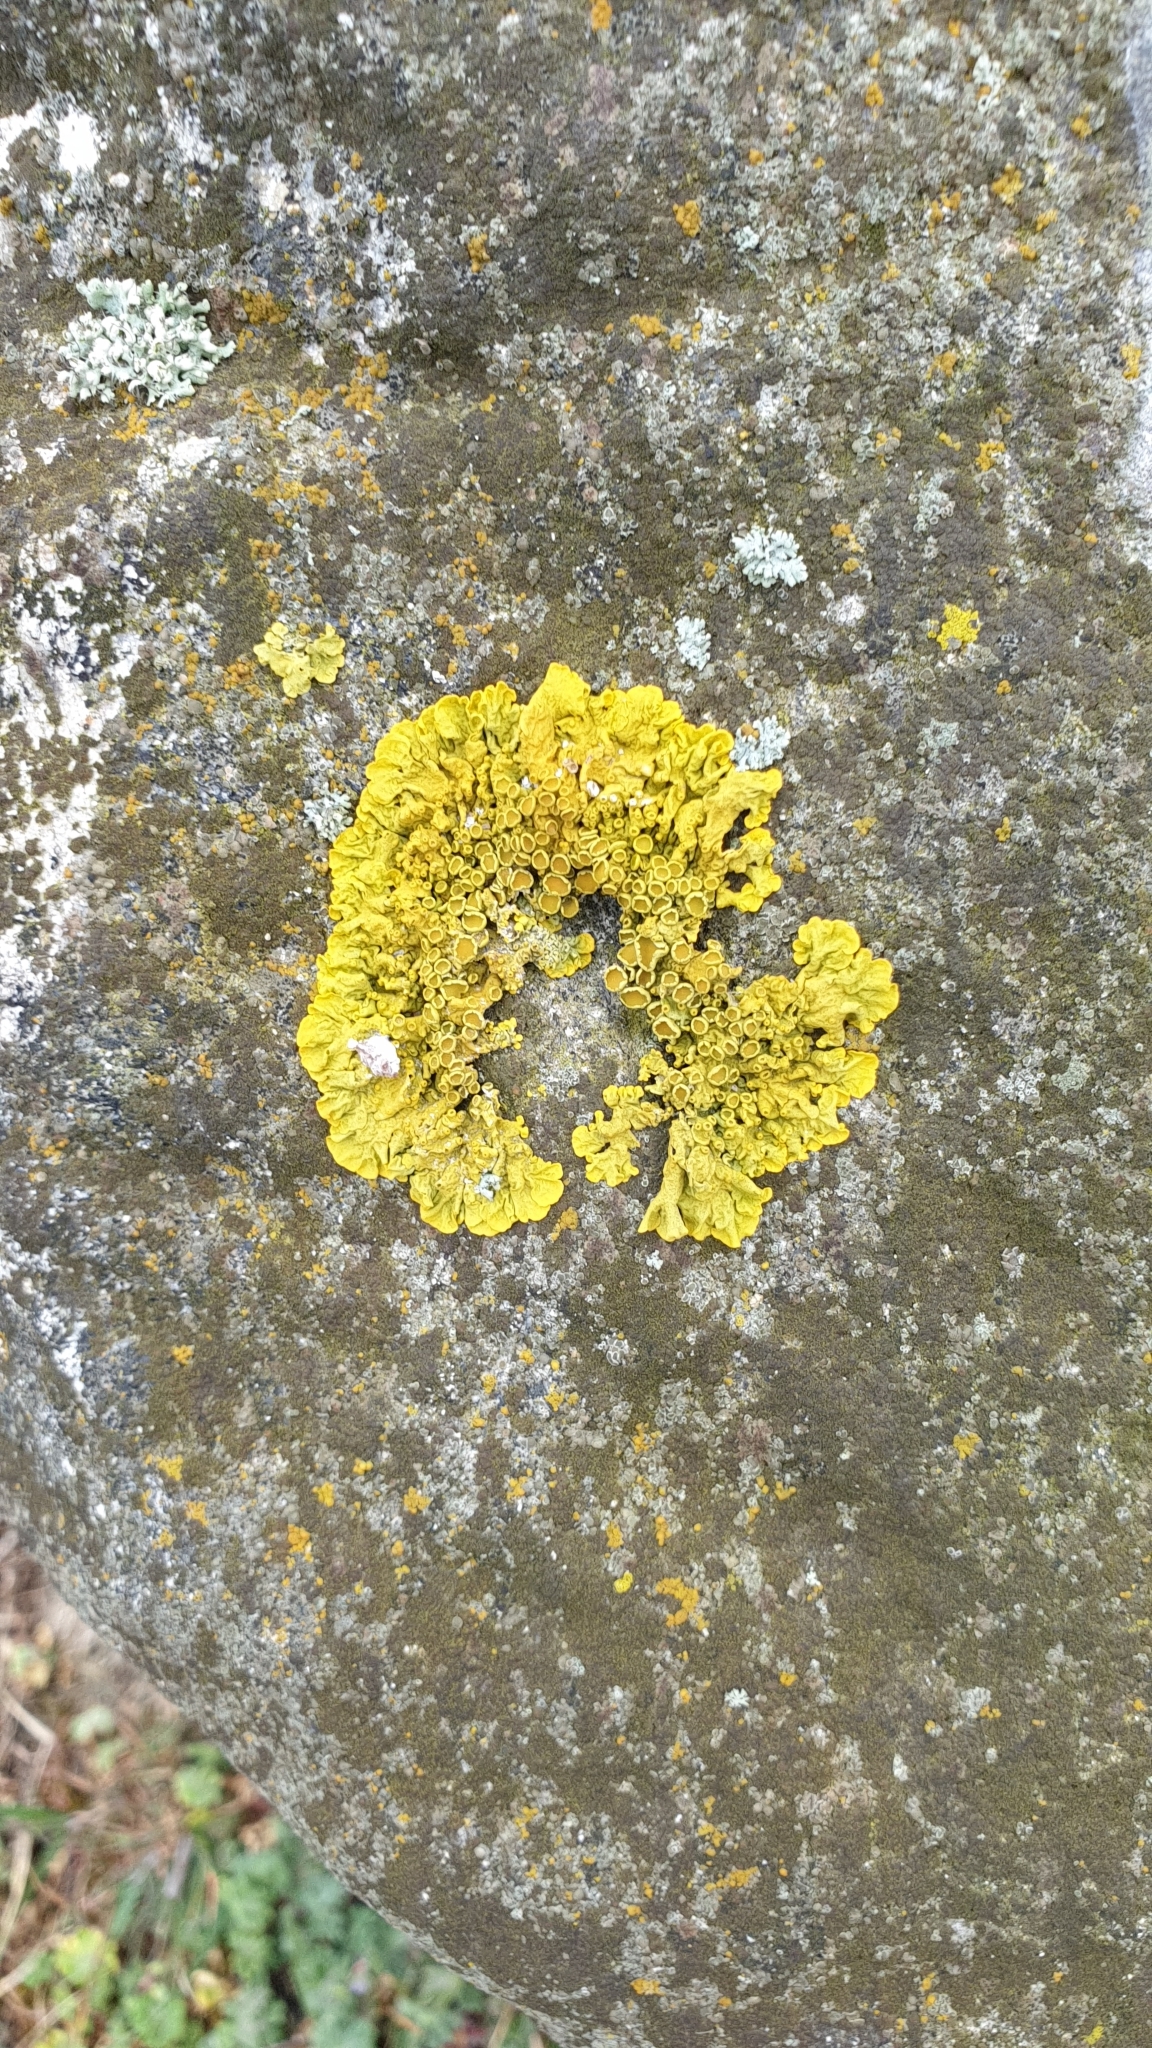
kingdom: Fungi
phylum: Ascomycota
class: Lecanoromycetes
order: Teloschistales
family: Teloschistaceae
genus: Xanthoria
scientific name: Xanthoria parietina
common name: Common orange lichen
